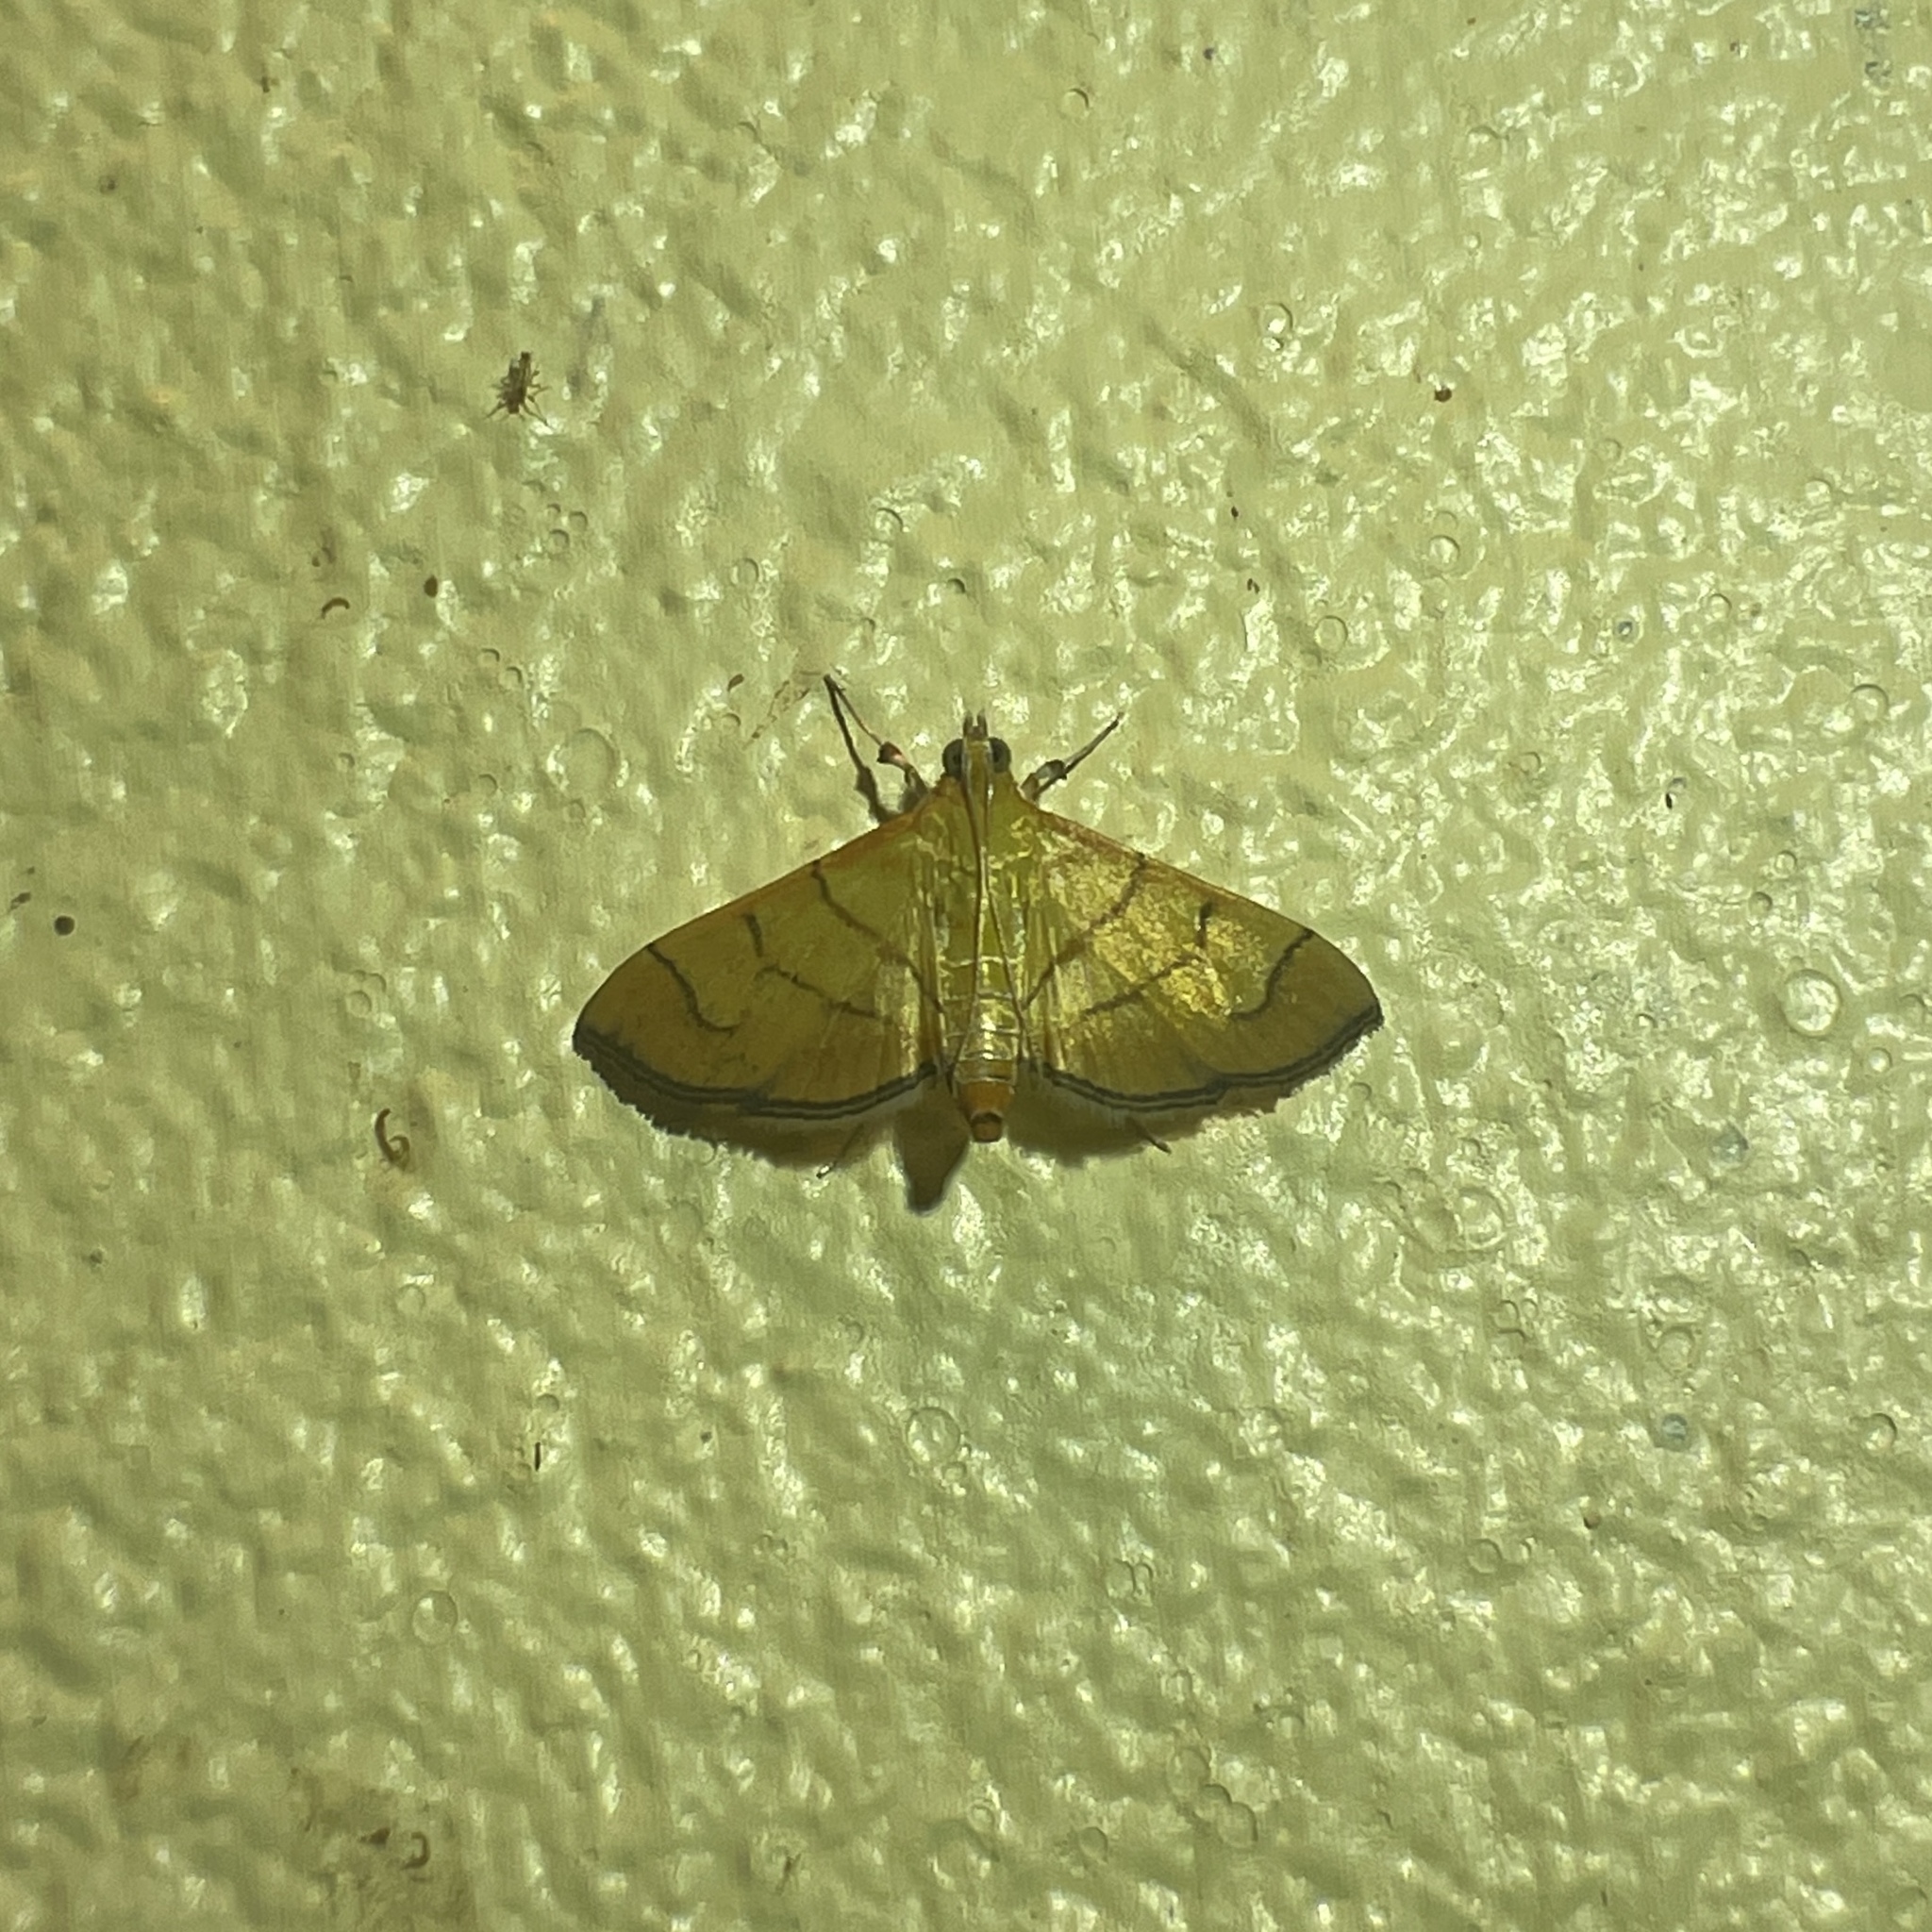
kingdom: Animalia
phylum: Arthropoda
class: Insecta
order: Lepidoptera
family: Crambidae
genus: Salbia
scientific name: Salbia haemorrhoidalis
